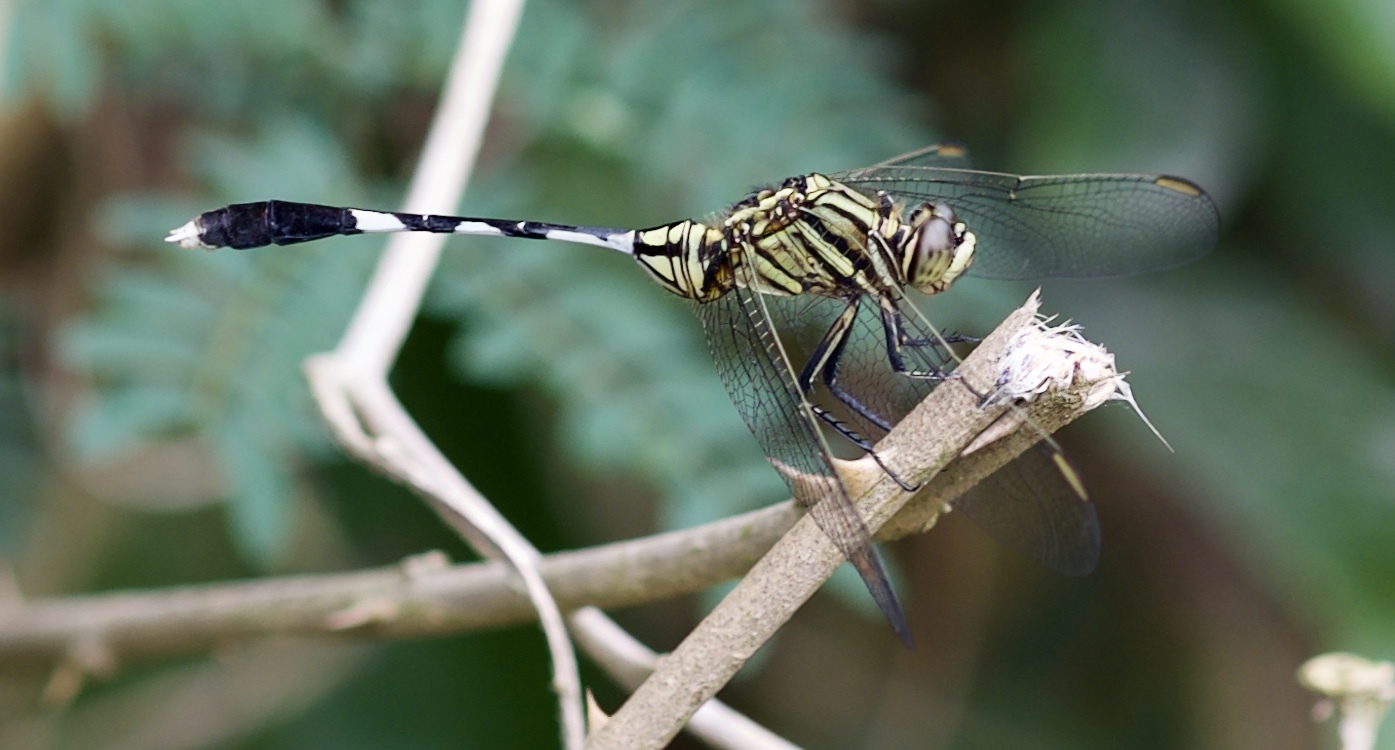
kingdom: Animalia
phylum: Arthropoda
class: Insecta
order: Odonata
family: Libellulidae
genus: Orthetrum
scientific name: Orthetrum sabina
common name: Slender skimmer
